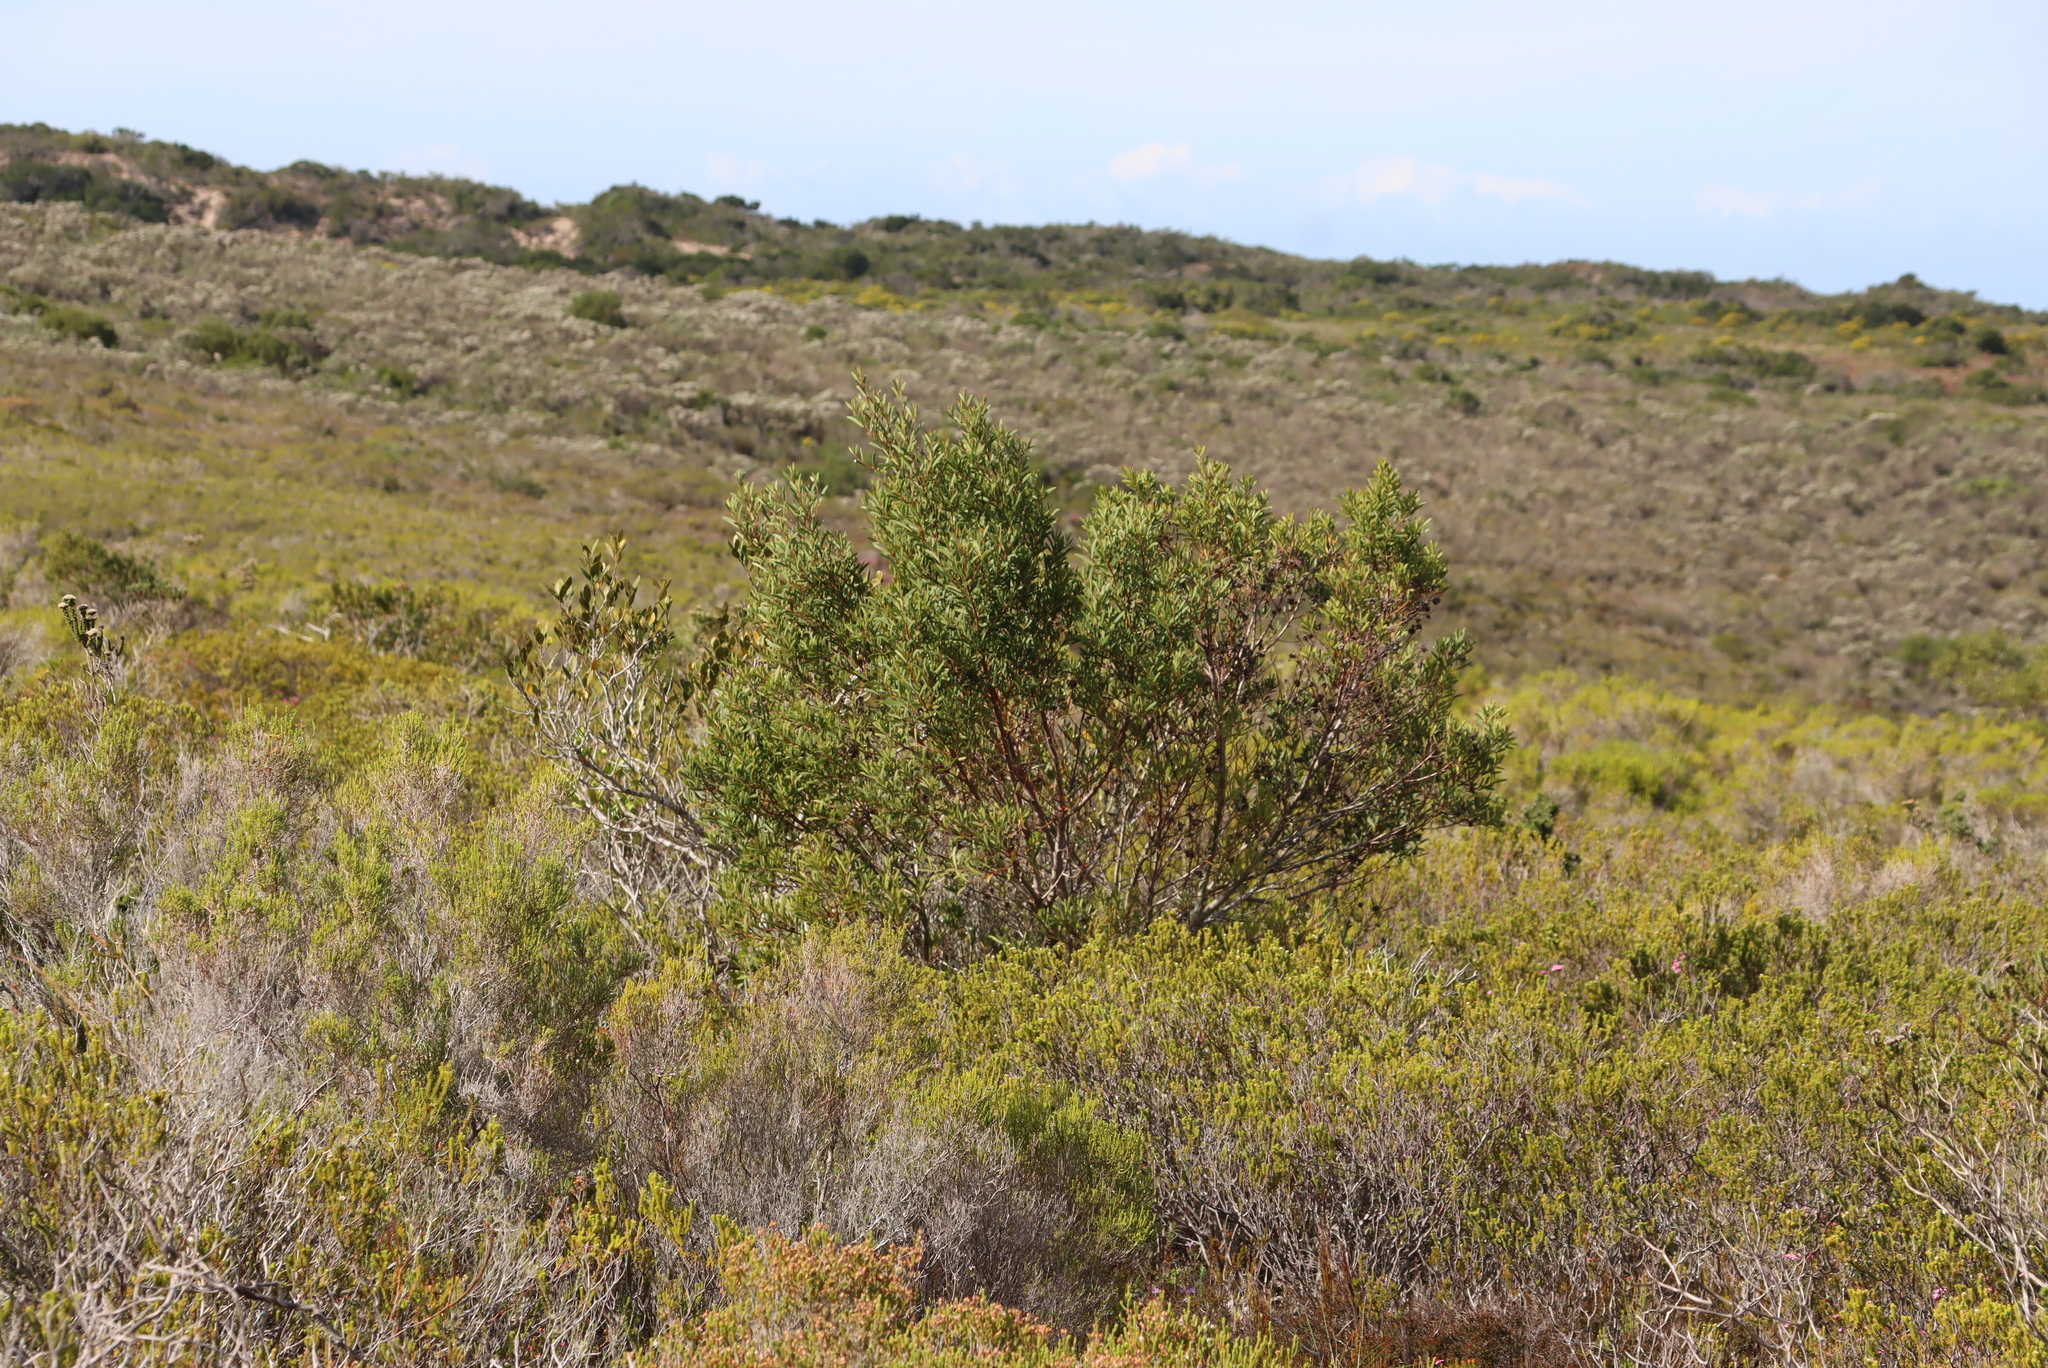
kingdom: Plantae
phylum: Tracheophyta
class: Magnoliopsida
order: Fabales
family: Fabaceae
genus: Acacia
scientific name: Acacia cyclops
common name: Coastal wattle
